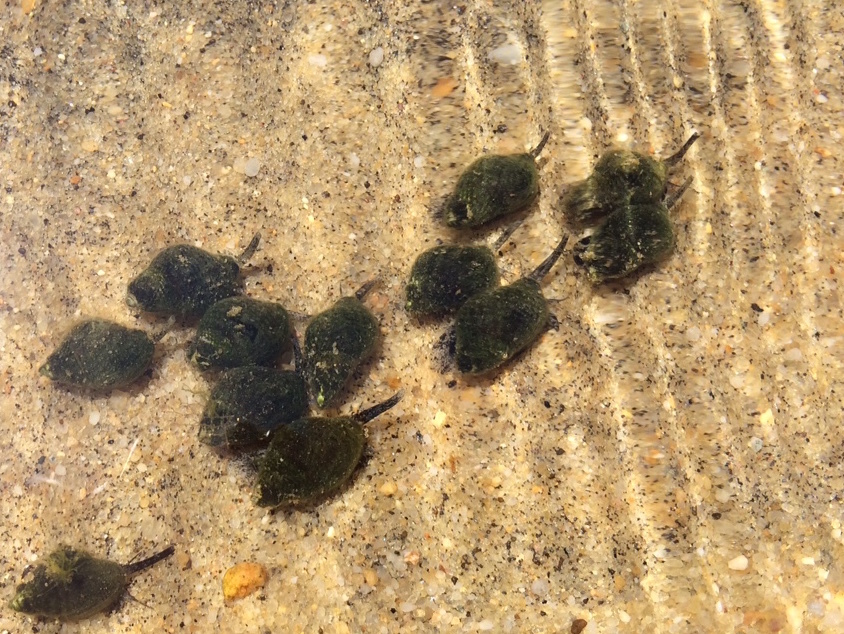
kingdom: Animalia
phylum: Mollusca
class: Gastropoda
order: Neogastropoda
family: Nassariidae
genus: Ilyanassa
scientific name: Ilyanassa obsoleta
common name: Eastern mudsnail
